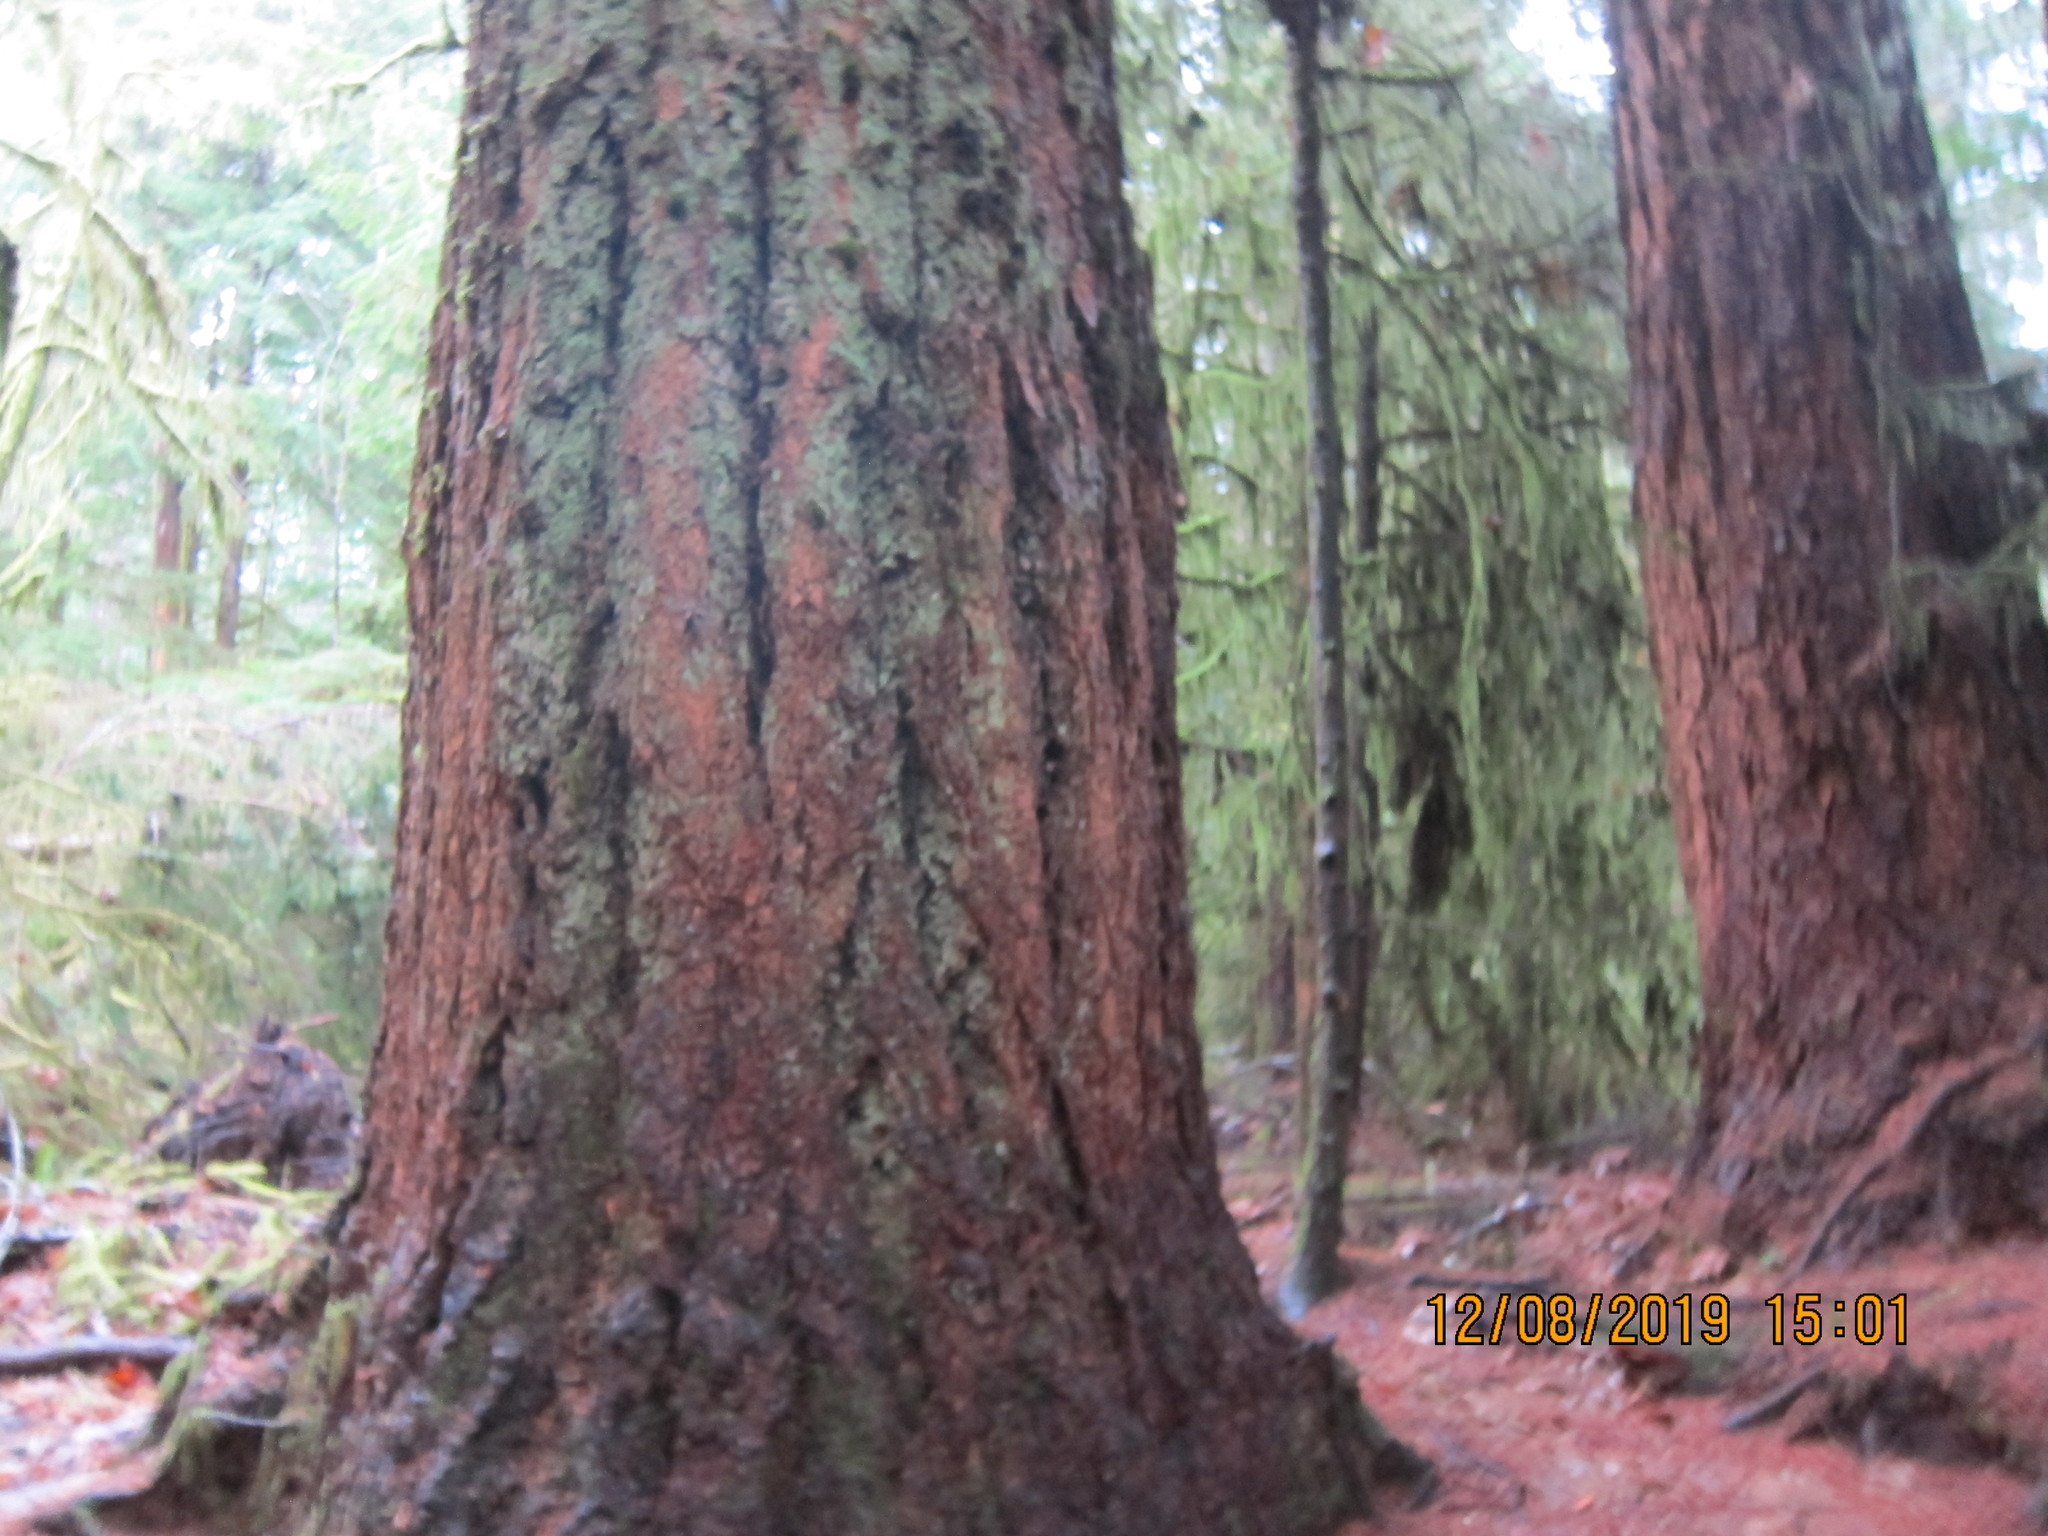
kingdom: Plantae
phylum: Tracheophyta
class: Pinopsida
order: Pinales
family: Pinaceae
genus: Pseudotsuga
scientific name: Pseudotsuga menziesii
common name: Douglas fir
